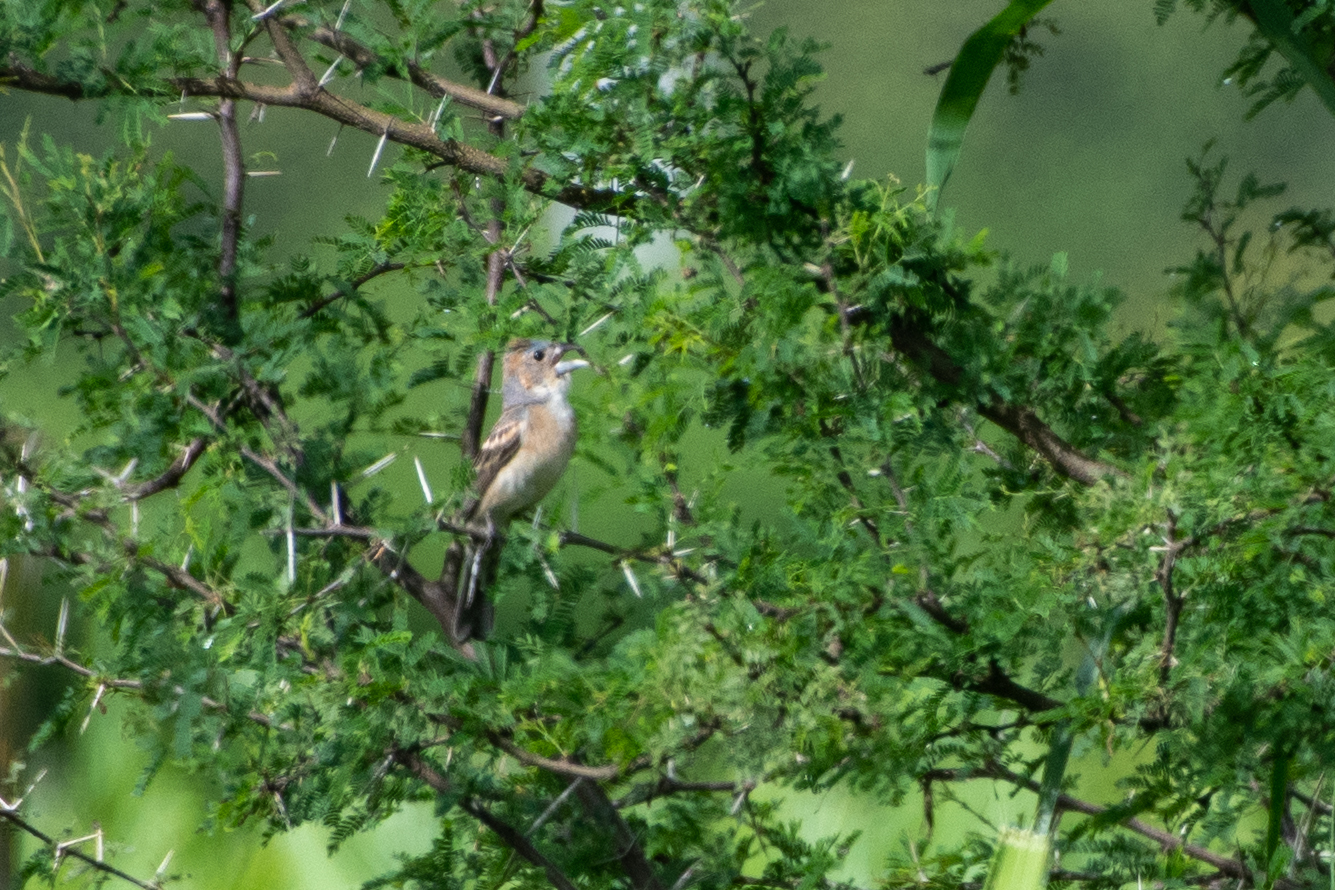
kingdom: Animalia
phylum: Chordata
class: Aves
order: Passeriformes
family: Cardinalidae
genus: Passerina
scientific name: Passerina caerulea
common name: Blue grosbeak
